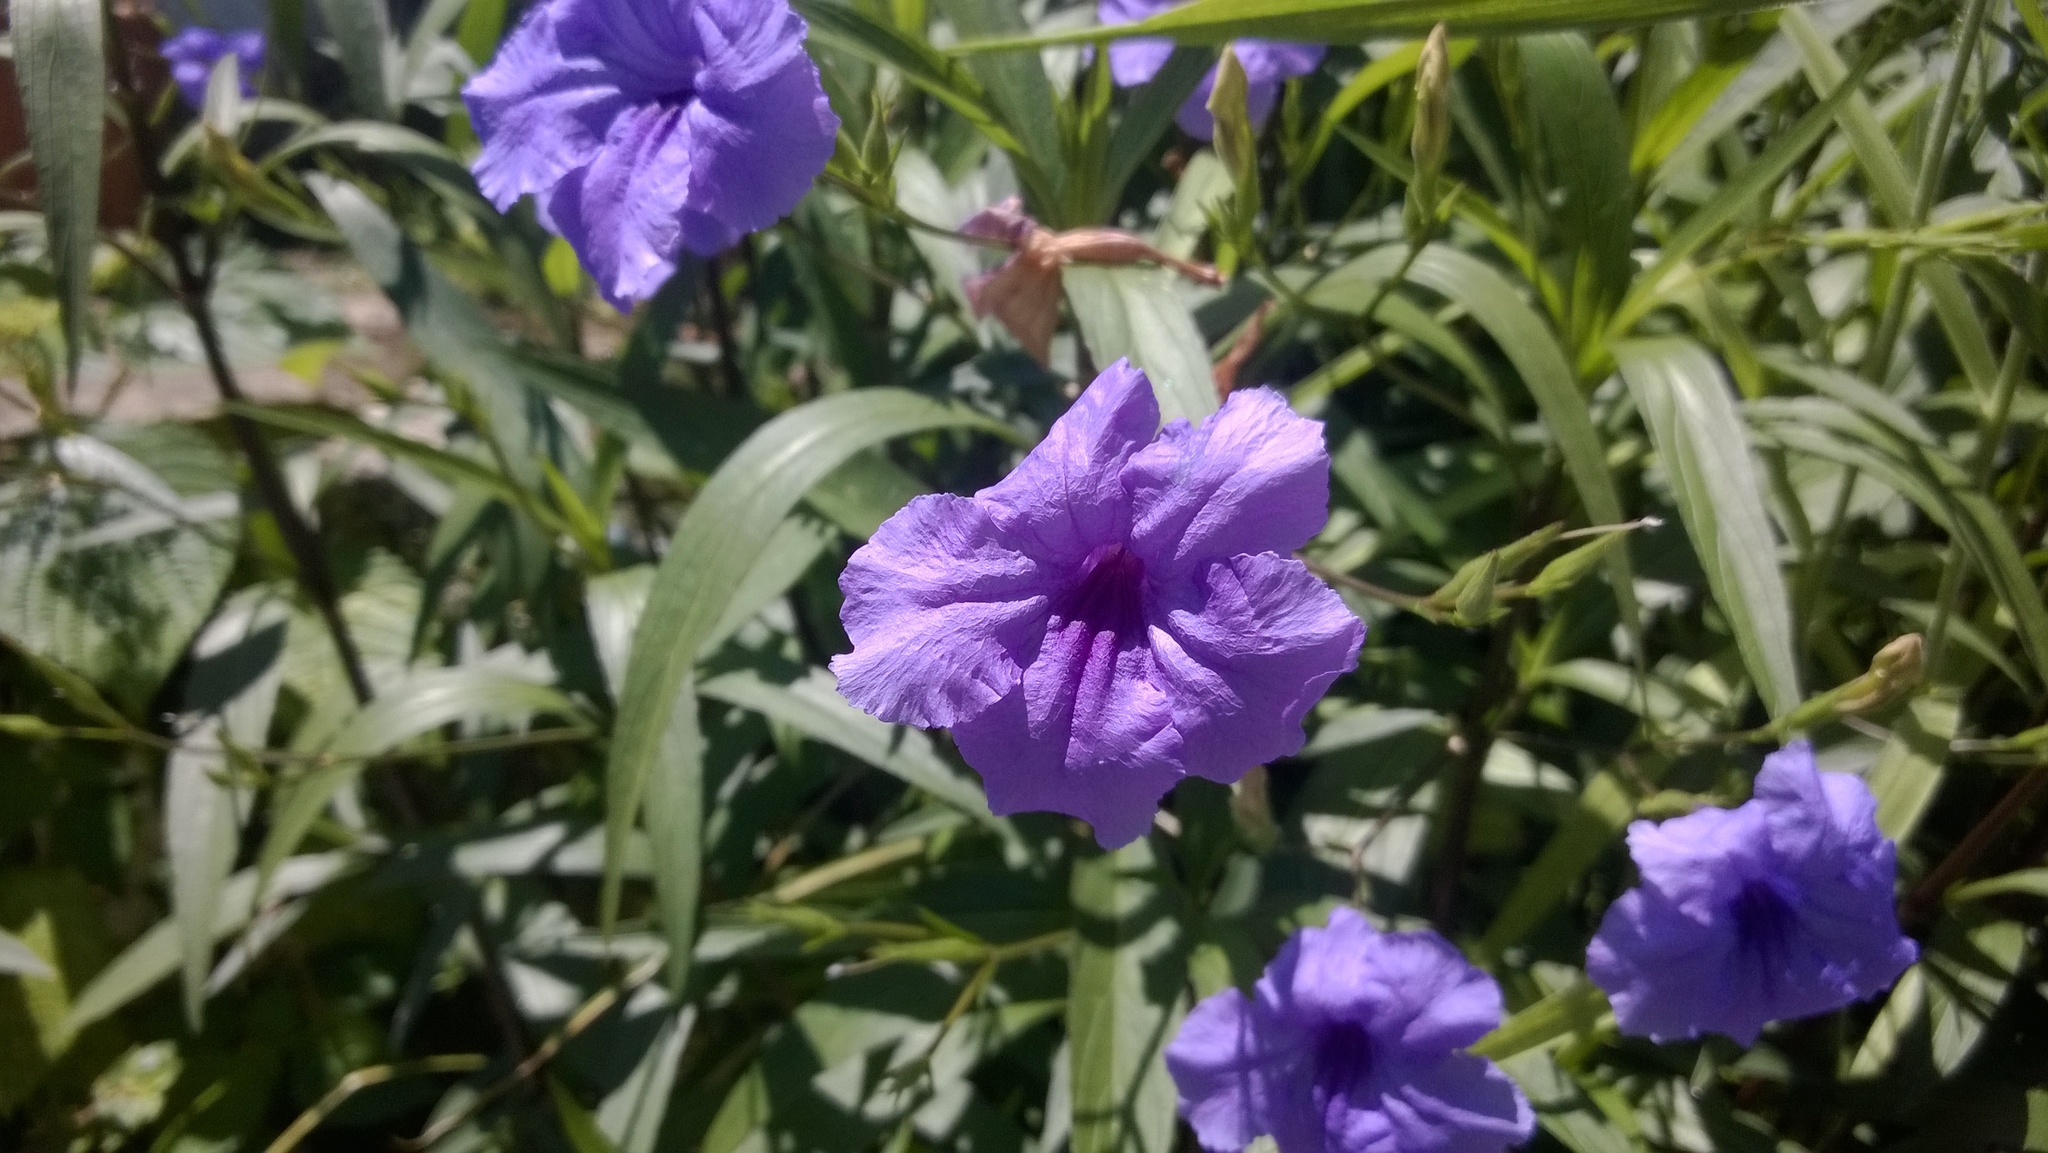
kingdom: Plantae
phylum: Tracheophyta
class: Magnoliopsida
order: Lamiales
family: Acanthaceae
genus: Ruellia
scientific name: Ruellia simplex
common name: Softseed wild petunia
